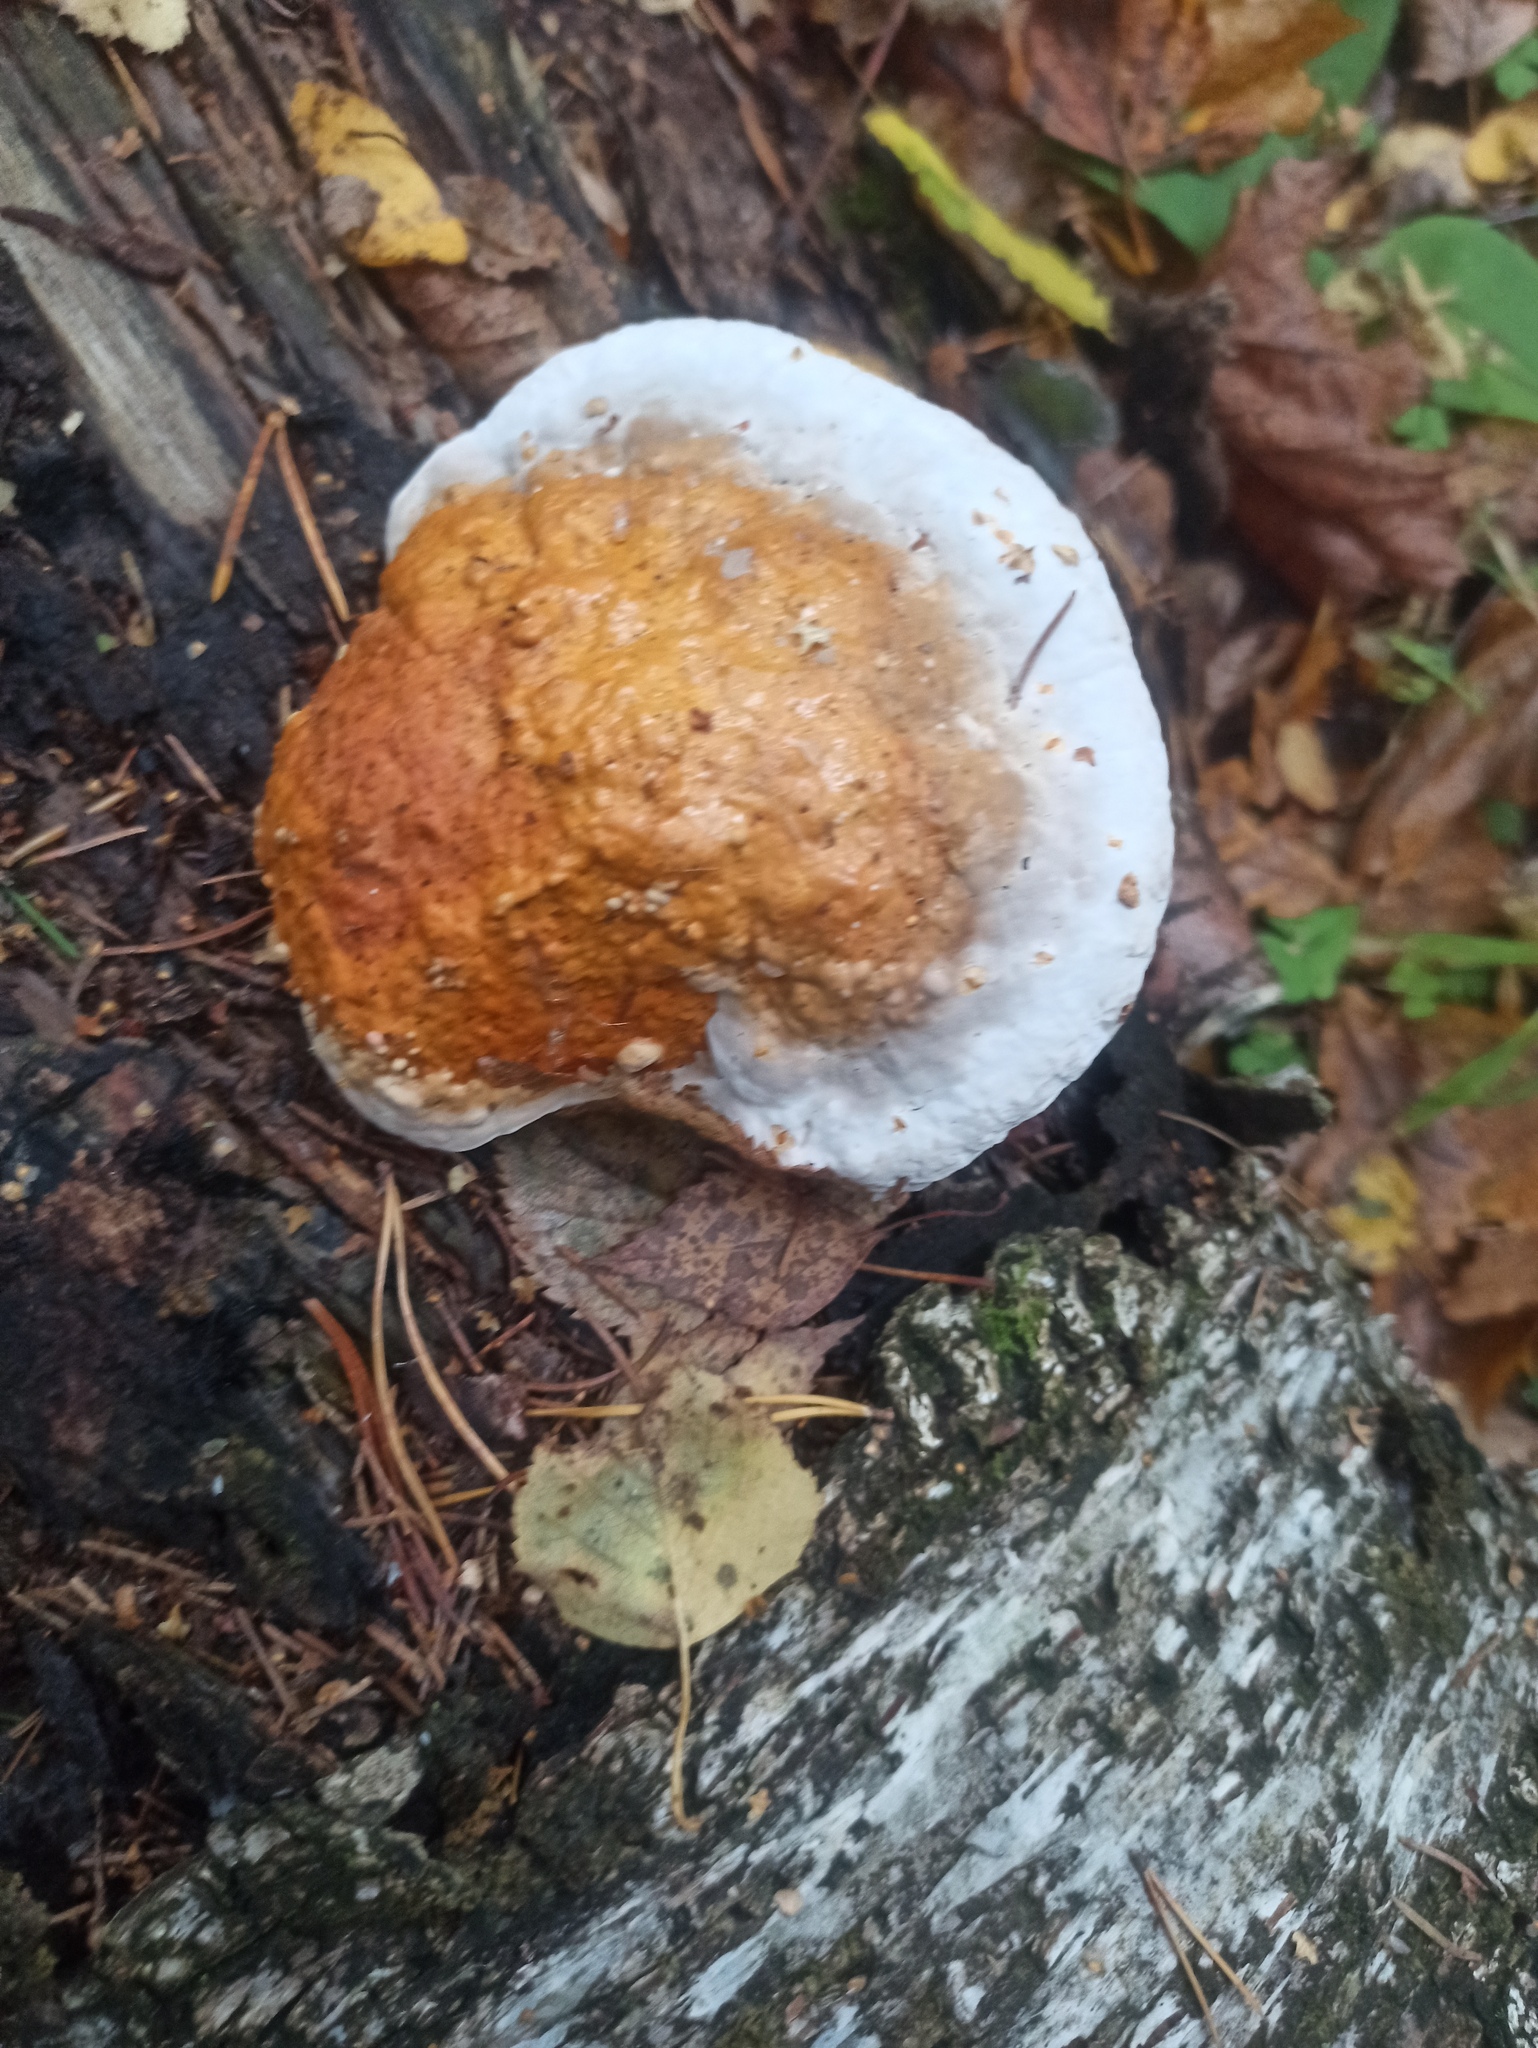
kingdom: Fungi
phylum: Basidiomycota
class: Agaricomycetes
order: Polyporales
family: Fomitopsidaceae
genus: Fomitopsis
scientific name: Fomitopsis pinicola
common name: Red-belted bracket
